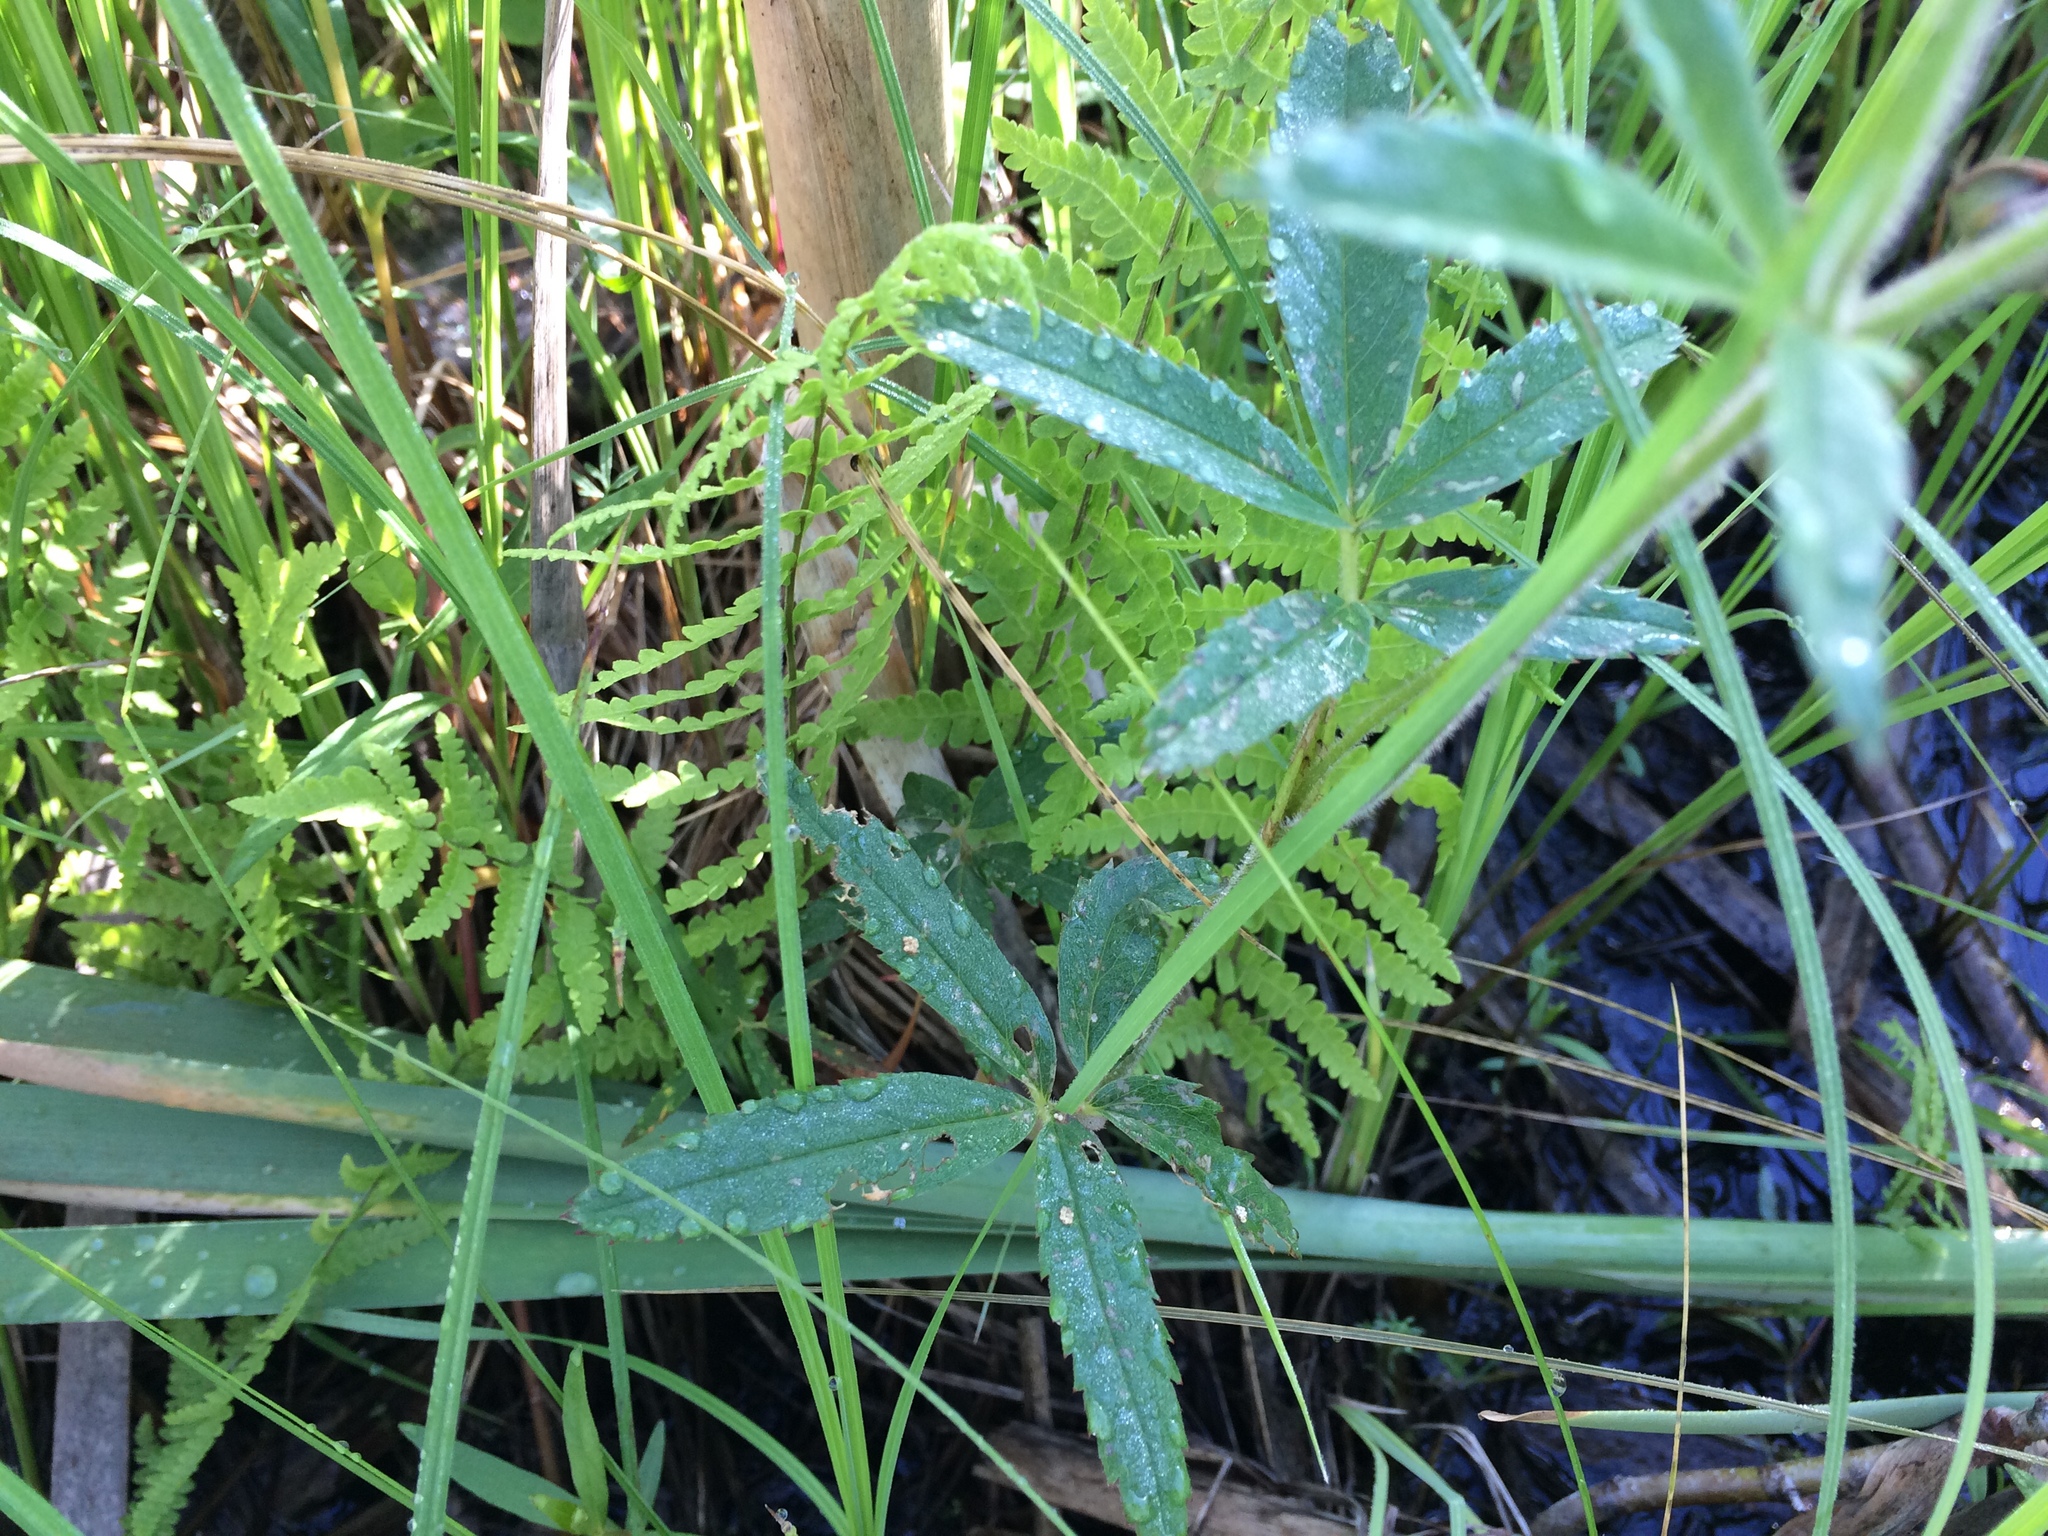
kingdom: Plantae
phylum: Tracheophyta
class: Magnoliopsida
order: Rosales
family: Rosaceae
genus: Comarum
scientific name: Comarum palustre
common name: Marsh cinquefoil
